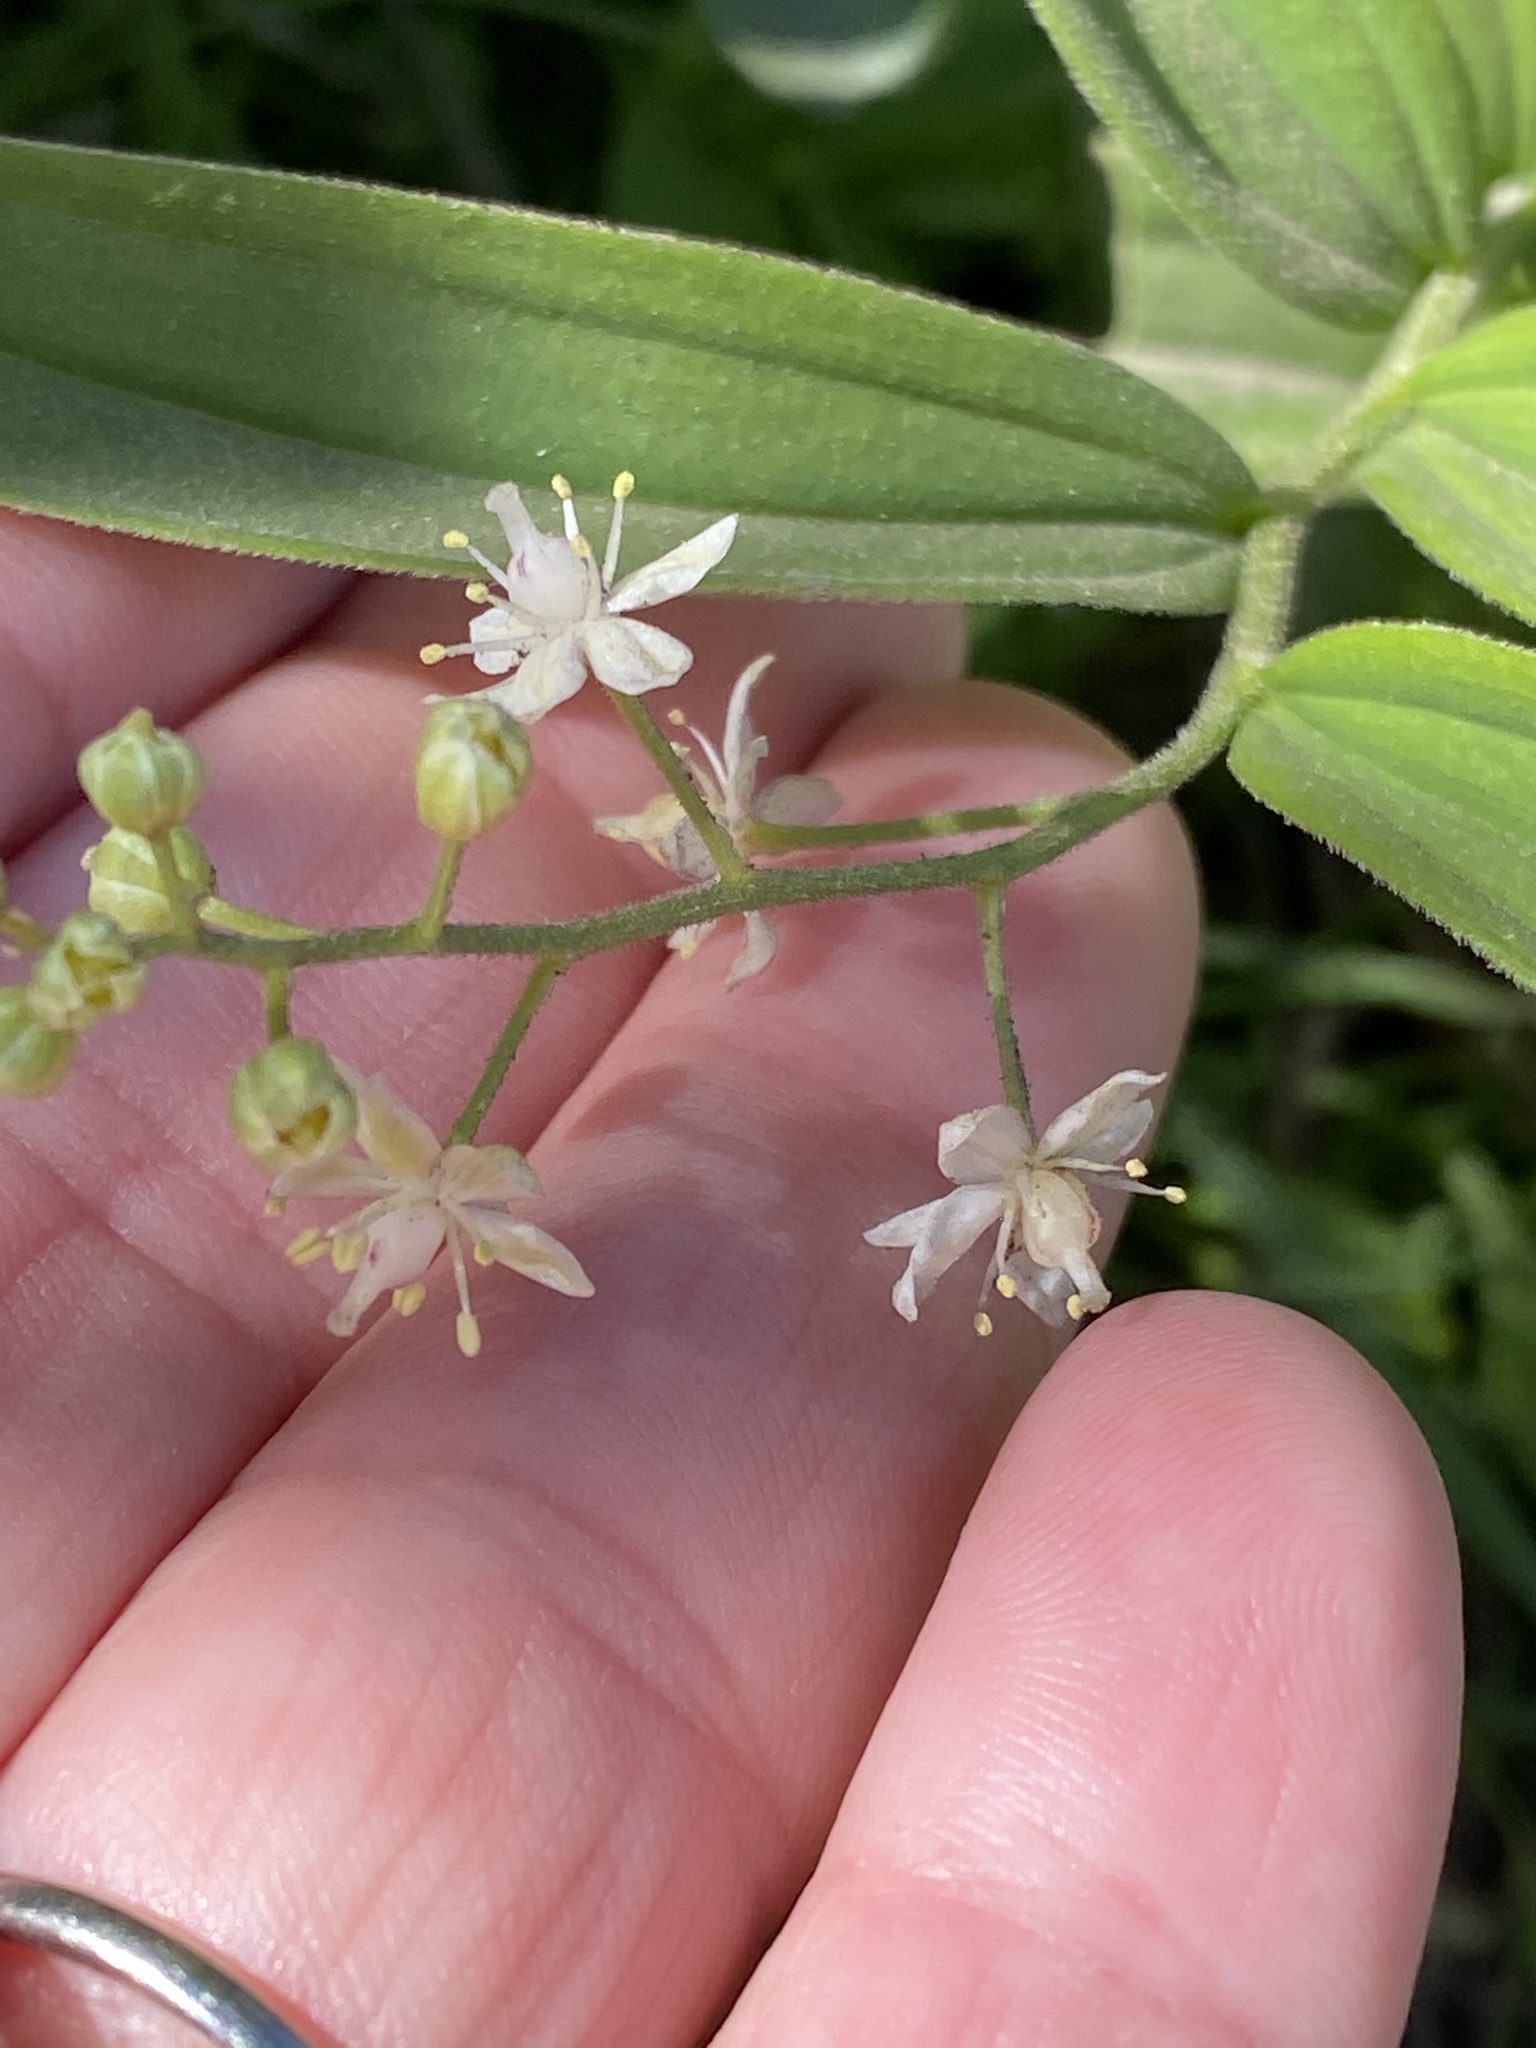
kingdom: Plantae
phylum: Tracheophyta
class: Liliopsida
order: Asparagales
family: Asparagaceae
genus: Maianthemum
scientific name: Maianthemum stellatum
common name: Little false solomon's seal
